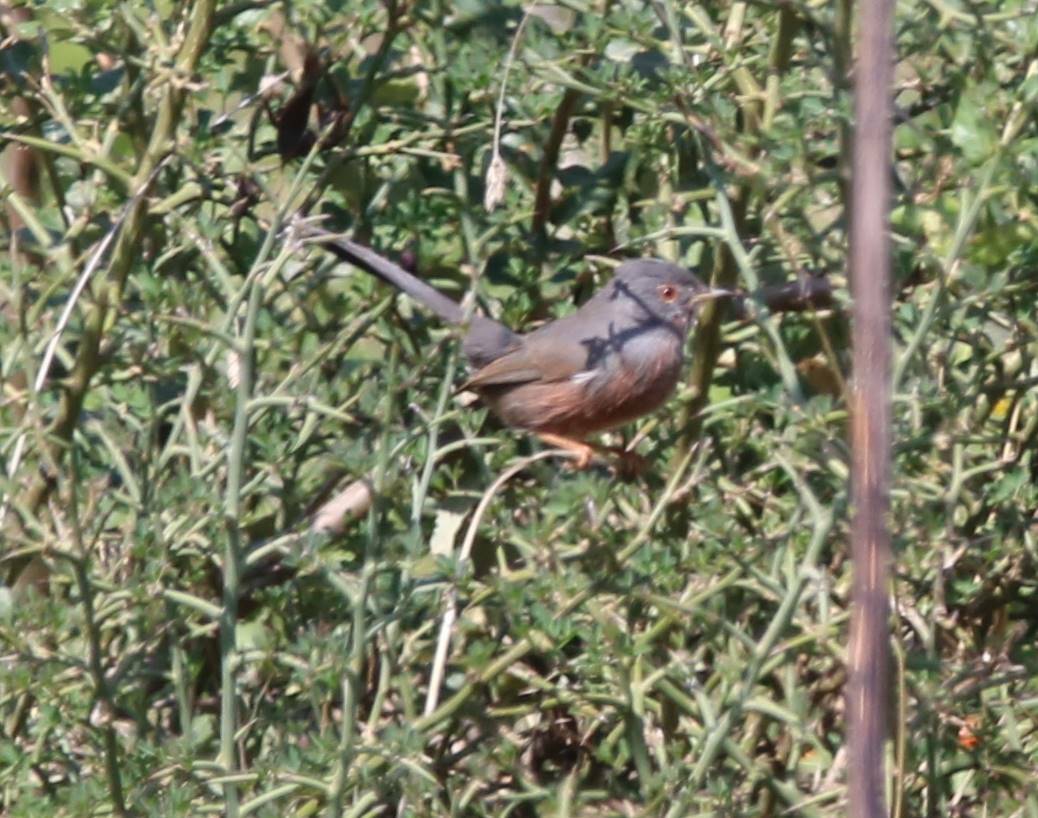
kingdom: Animalia
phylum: Chordata
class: Aves
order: Passeriformes
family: Sylviidae
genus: Sylvia
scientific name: Sylvia undata
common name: Dartford warbler
